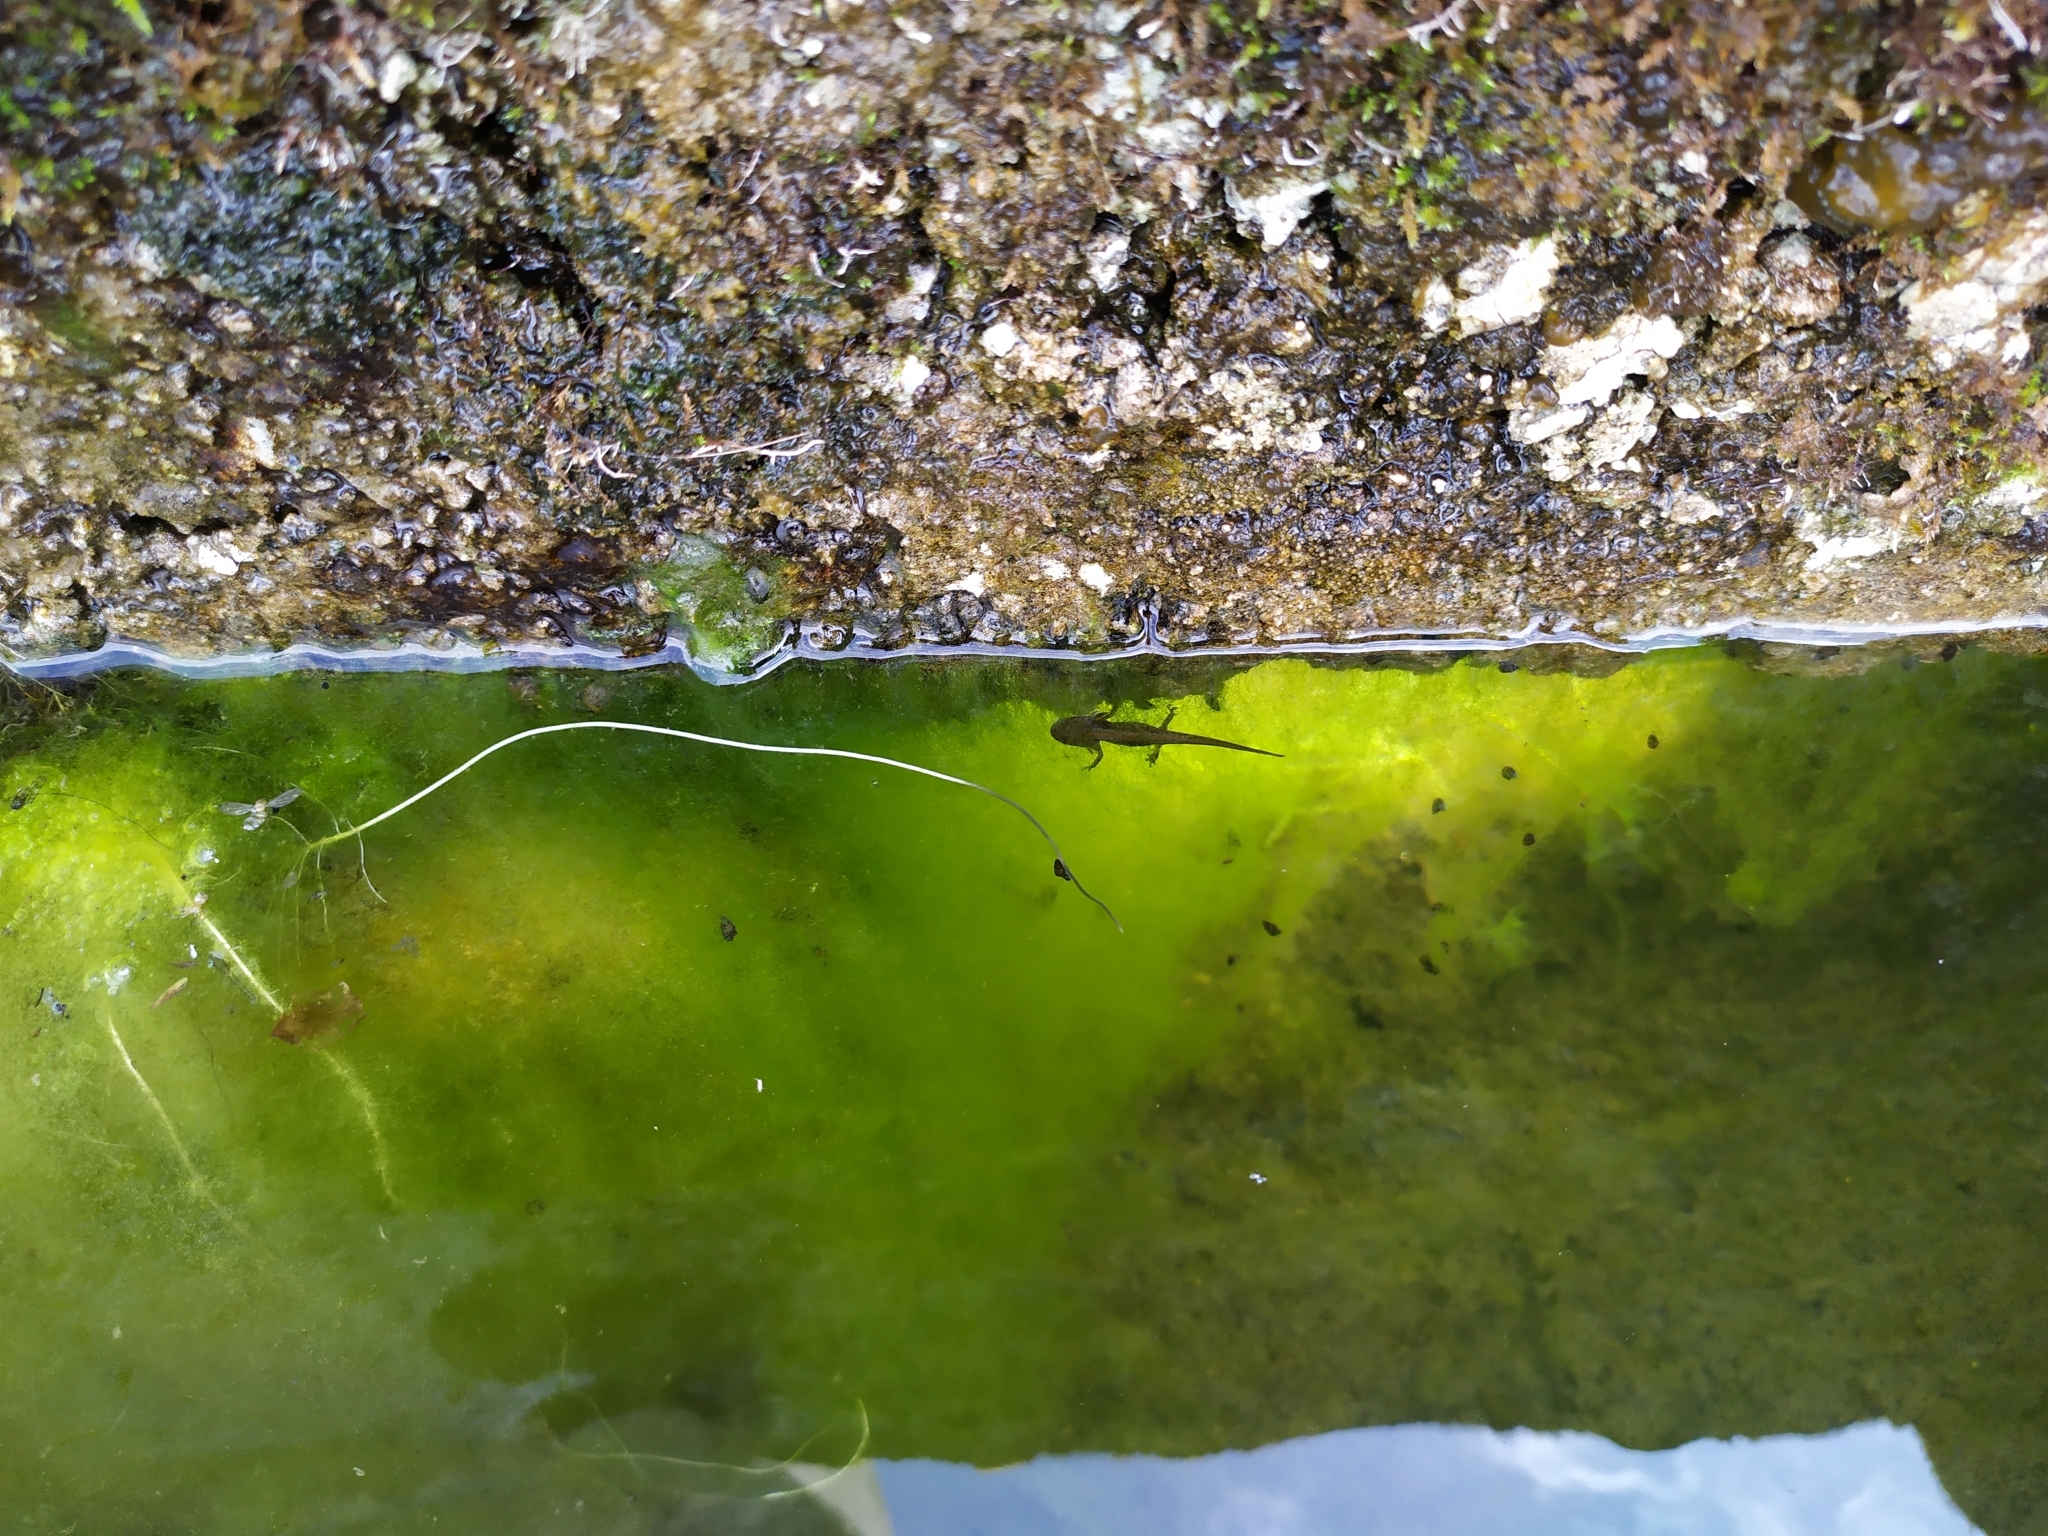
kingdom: Animalia
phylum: Chordata
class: Amphibia
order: Caudata
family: Salamandridae
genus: Lissotriton
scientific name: Lissotriton vulgaris
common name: Smooth newt
